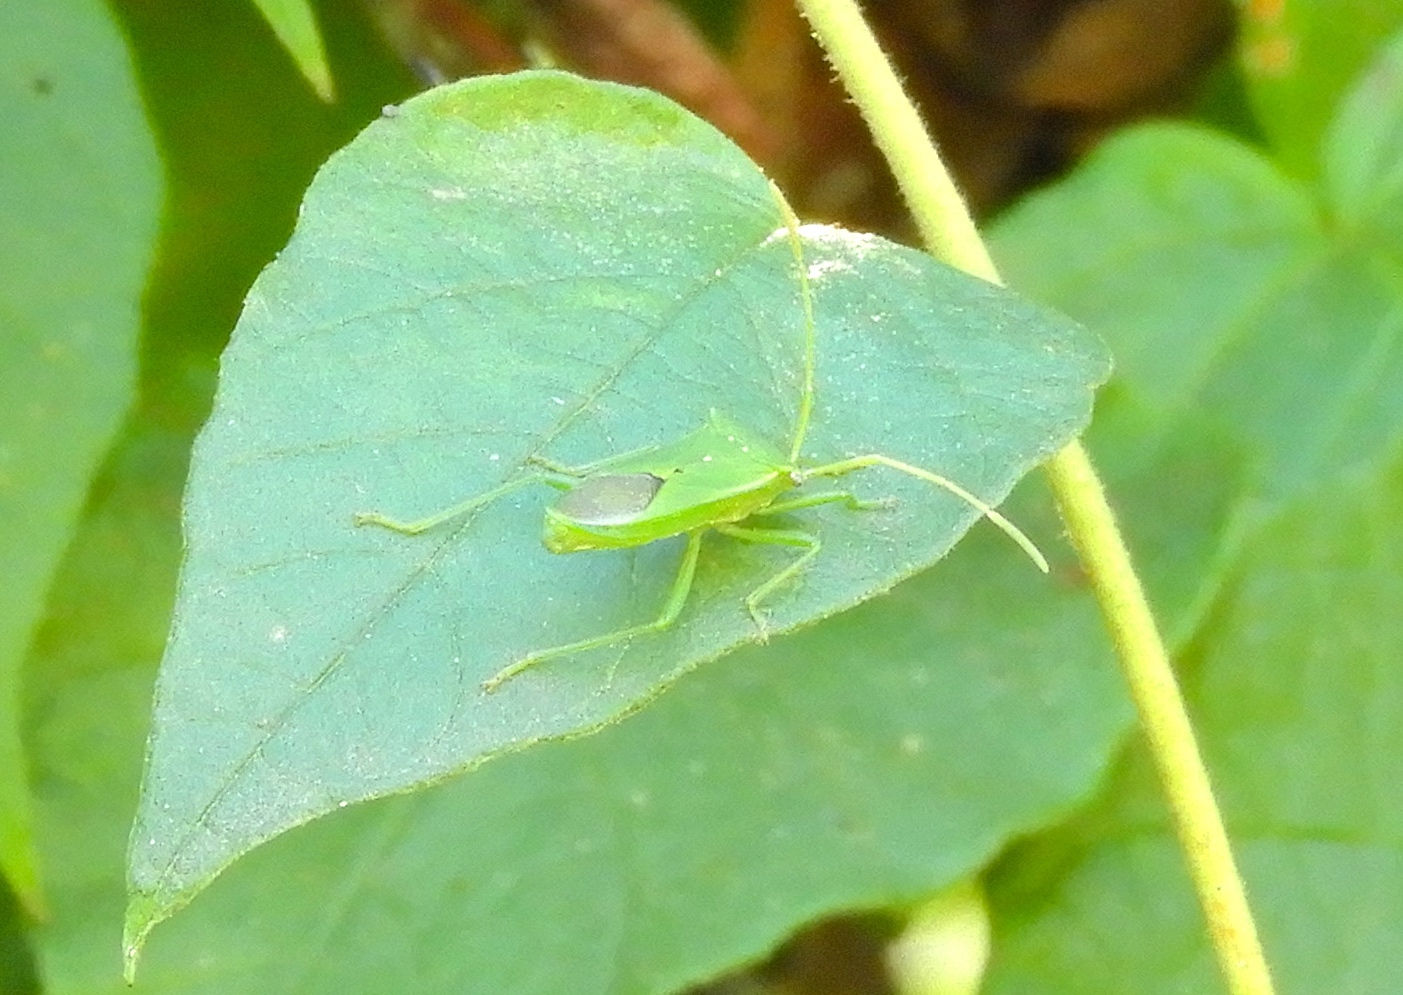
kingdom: Animalia
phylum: Arthropoda
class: Insecta
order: Hemiptera
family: Coreidae
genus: Savius
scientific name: Savius
